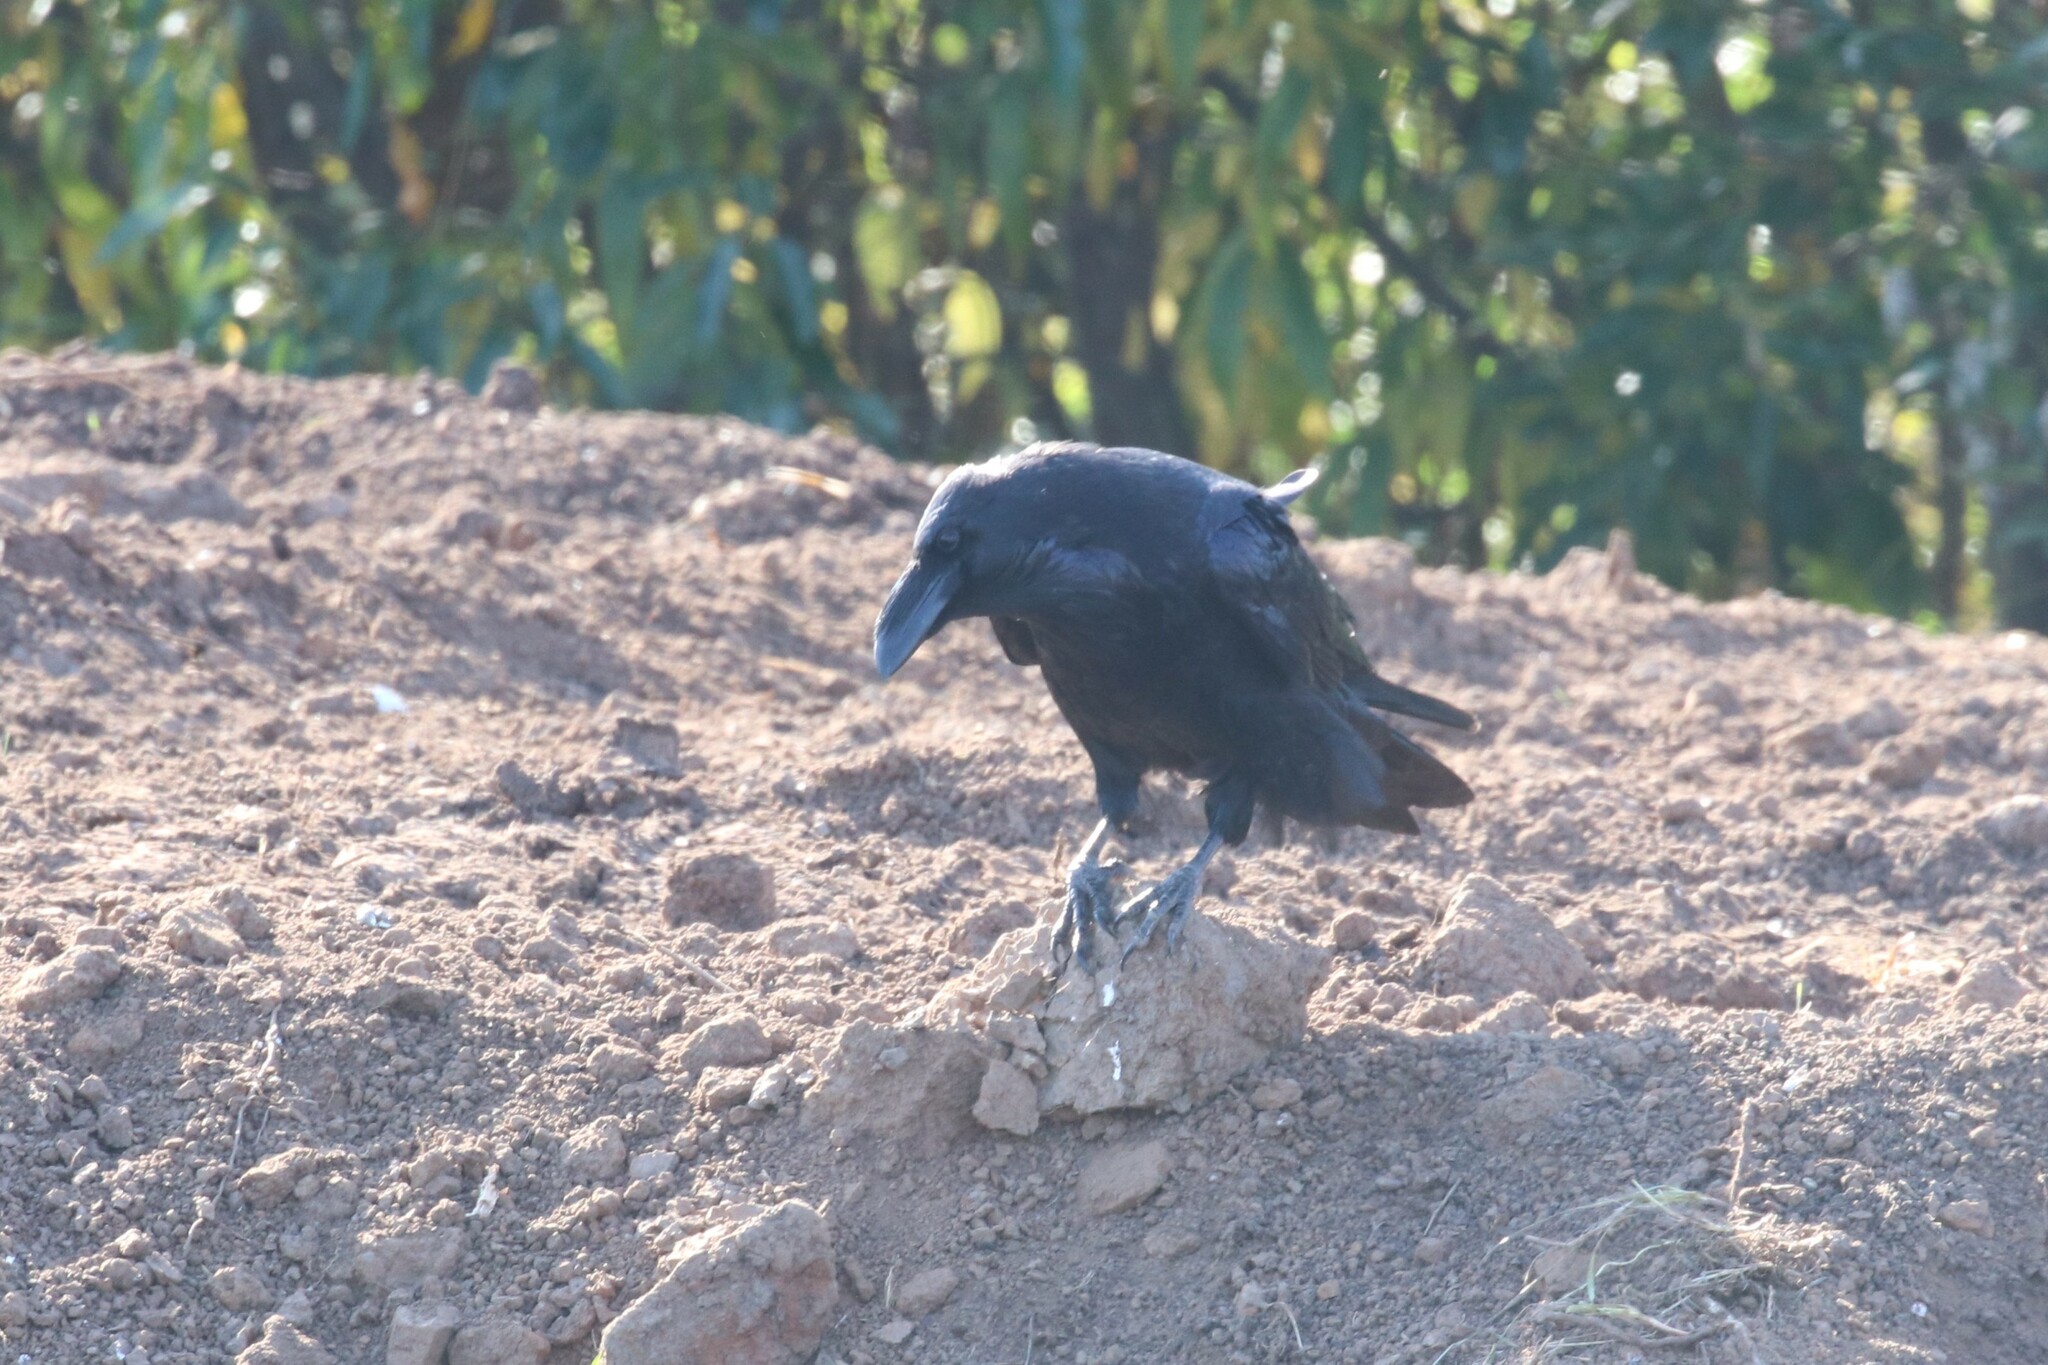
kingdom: Animalia
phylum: Chordata
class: Aves
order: Passeriformes
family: Corvidae
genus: Corvus
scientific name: Corvus corax
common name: Common raven
